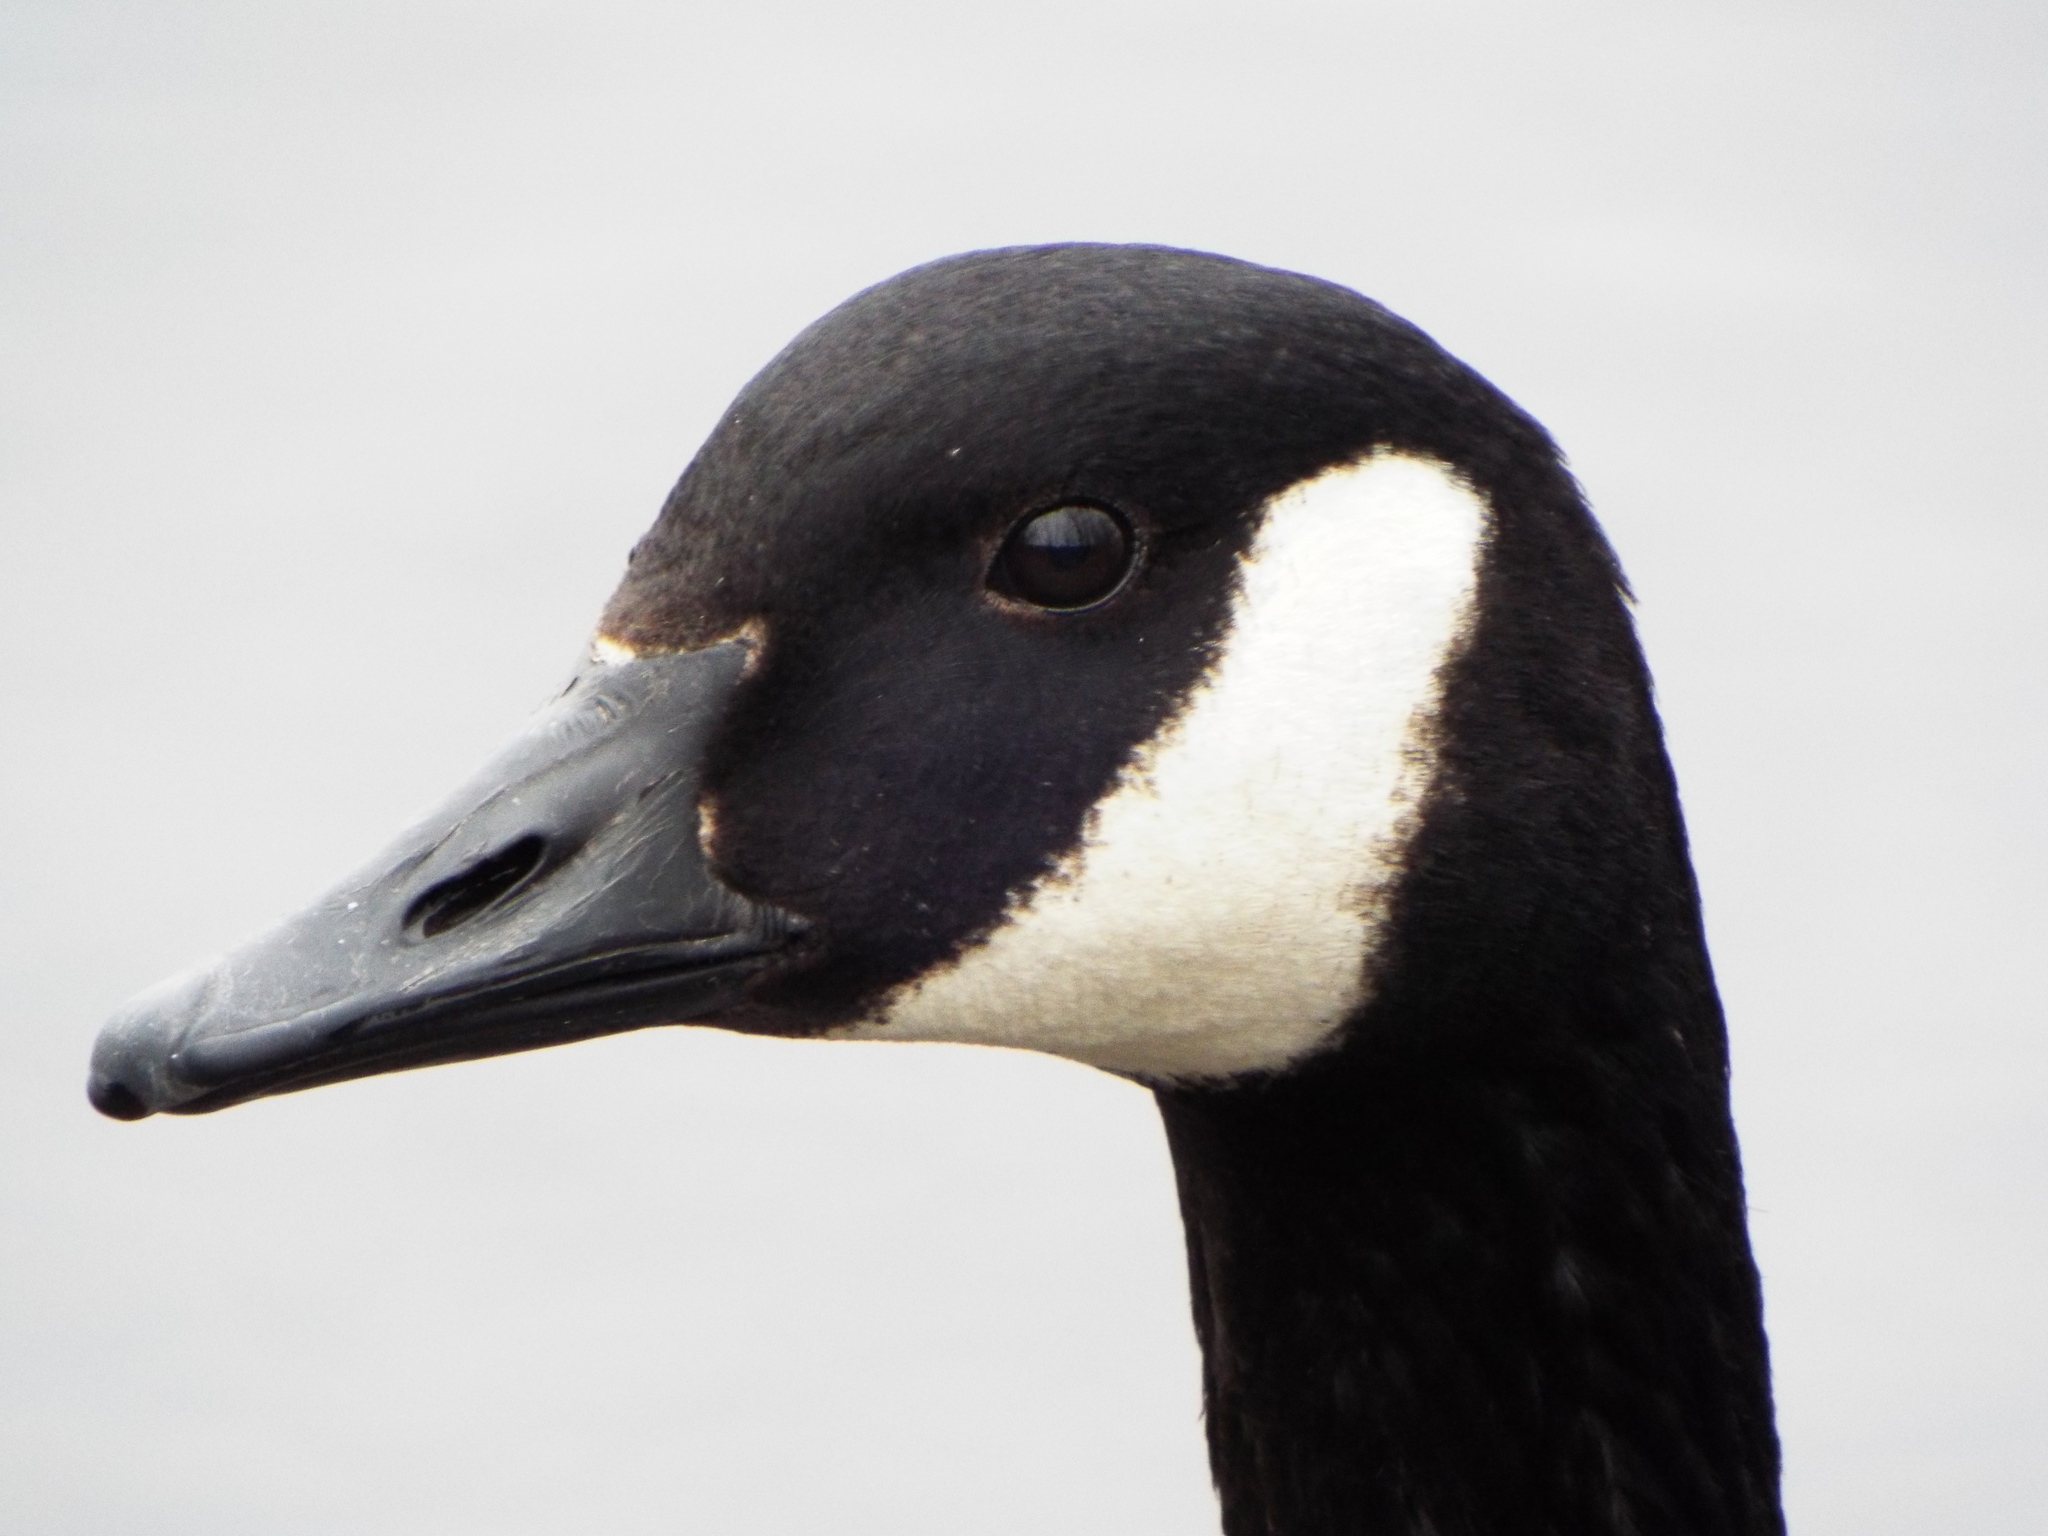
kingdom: Animalia
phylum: Chordata
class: Aves
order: Anseriformes
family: Anatidae
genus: Branta
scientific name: Branta canadensis
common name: Canada goose
